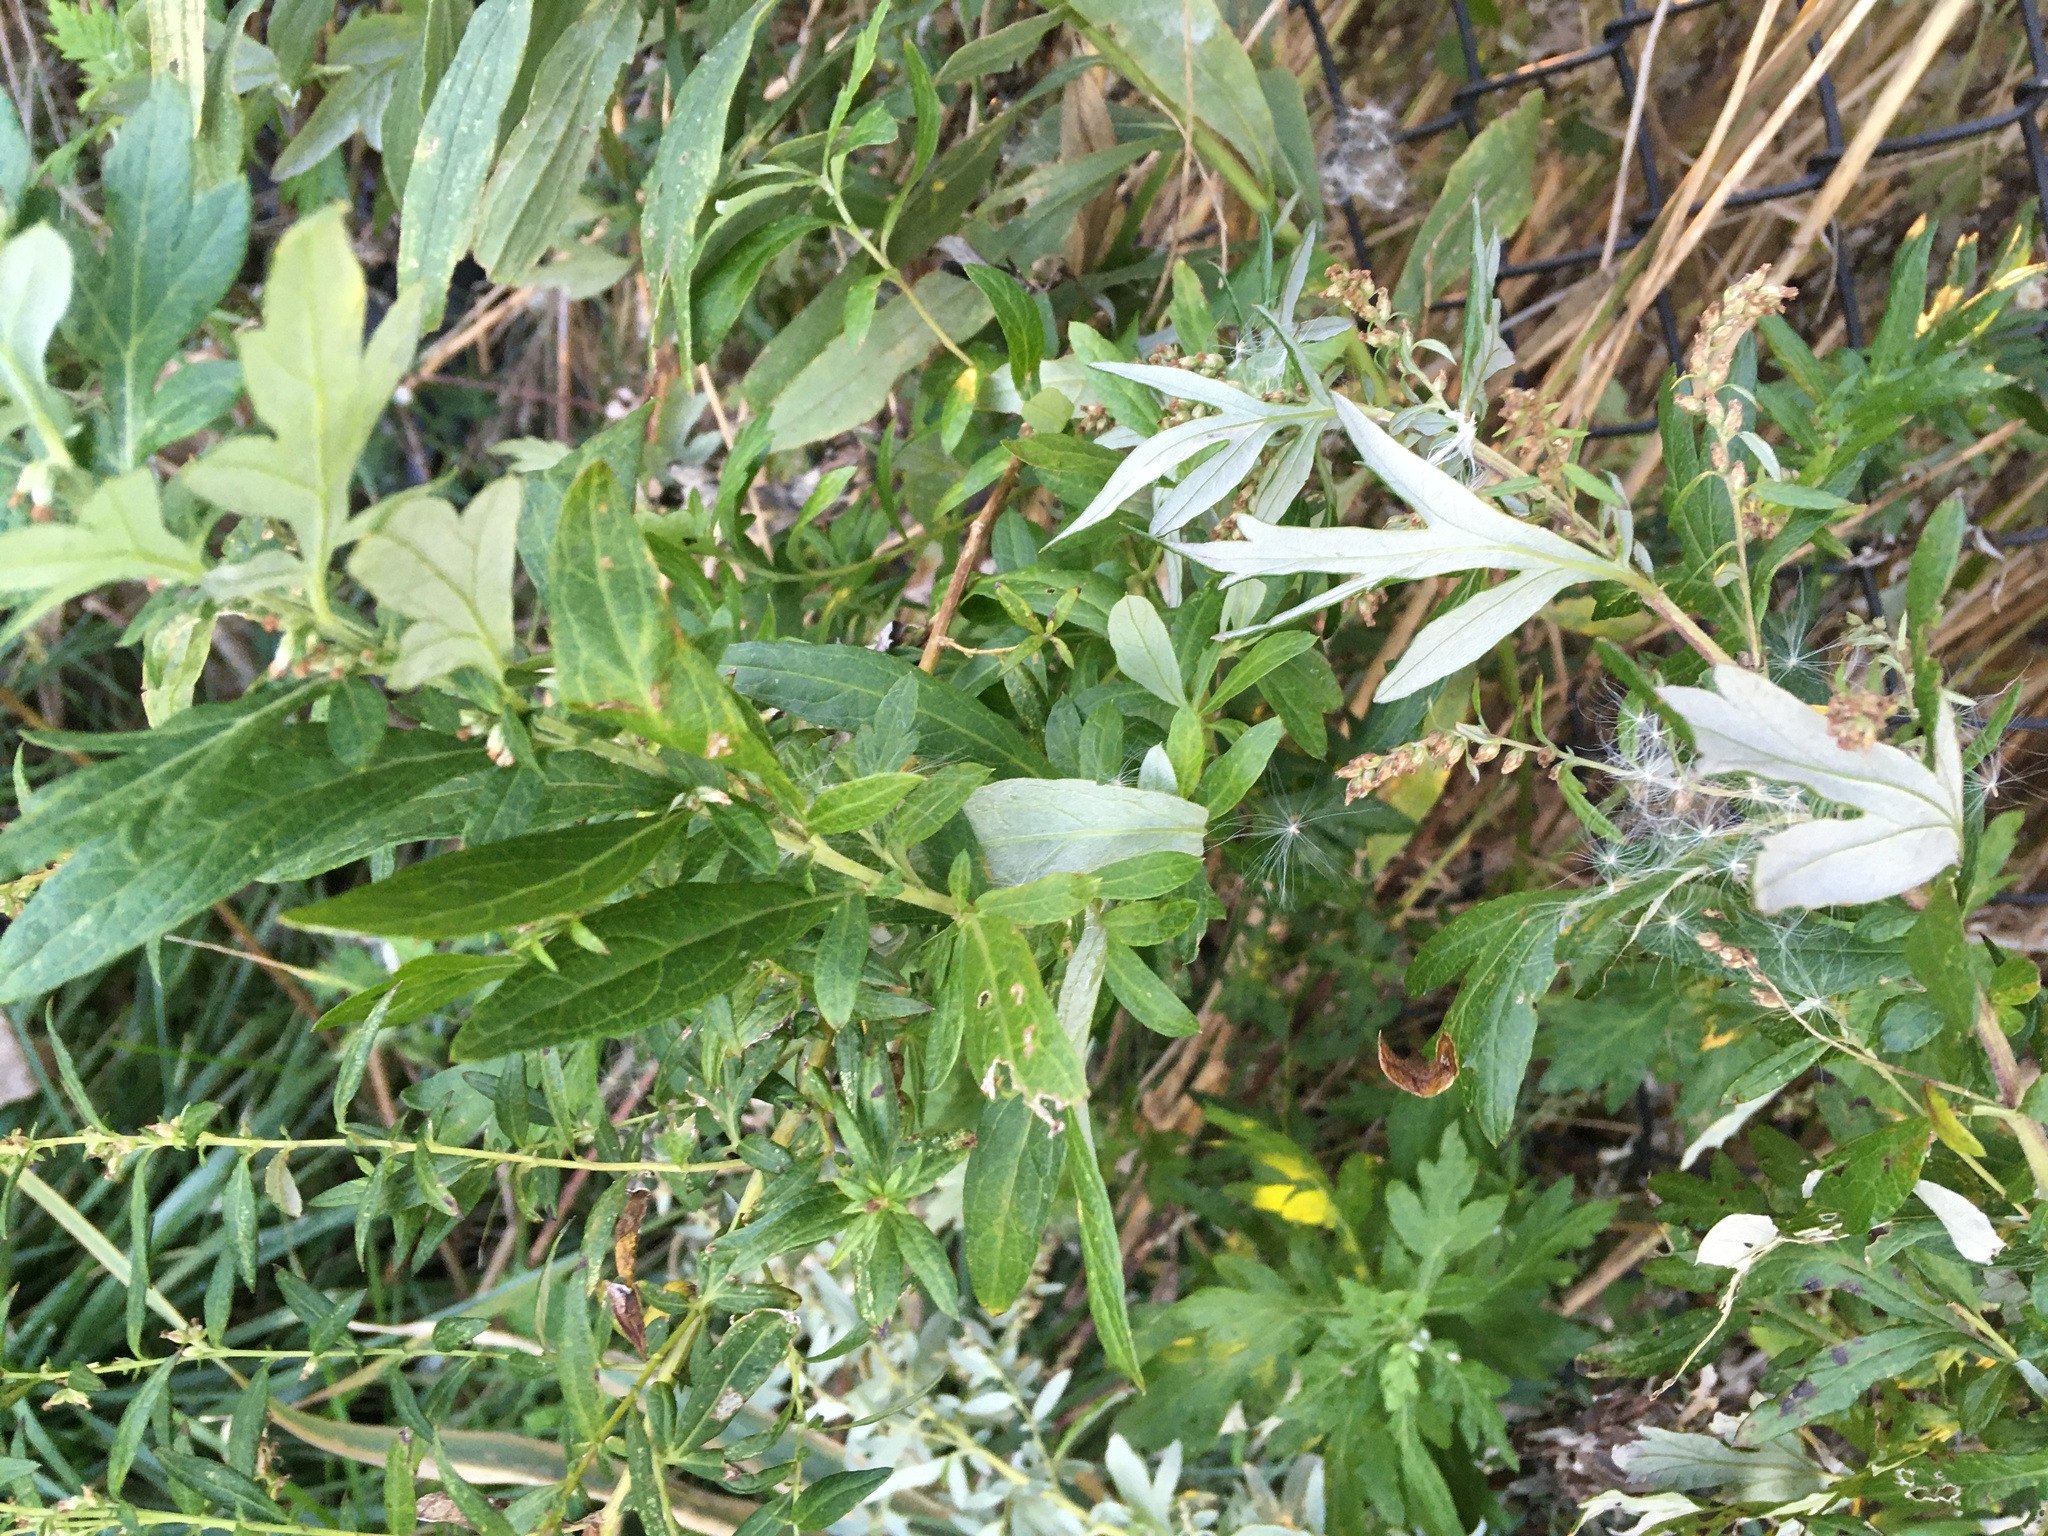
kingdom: Plantae
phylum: Tracheophyta
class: Magnoliopsida
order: Asterales
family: Asteraceae
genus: Artemisia
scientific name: Artemisia vulgaris
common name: Mugwort
